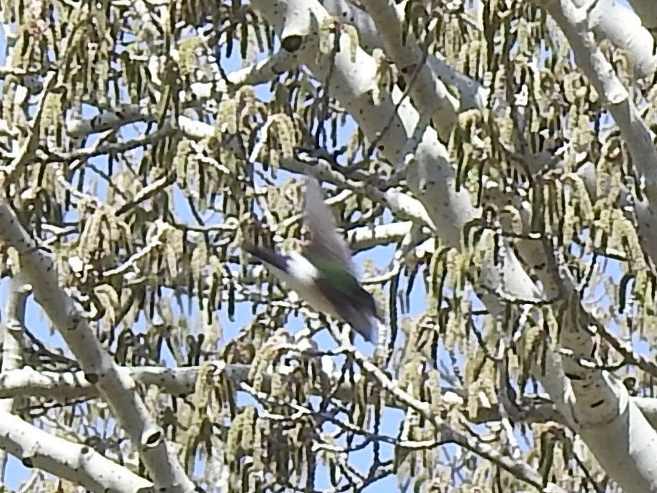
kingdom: Animalia
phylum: Chordata
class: Aves
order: Passeriformes
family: Hirundinidae
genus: Tachycineta
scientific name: Tachycineta thalassina
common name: Violet-green swallow
